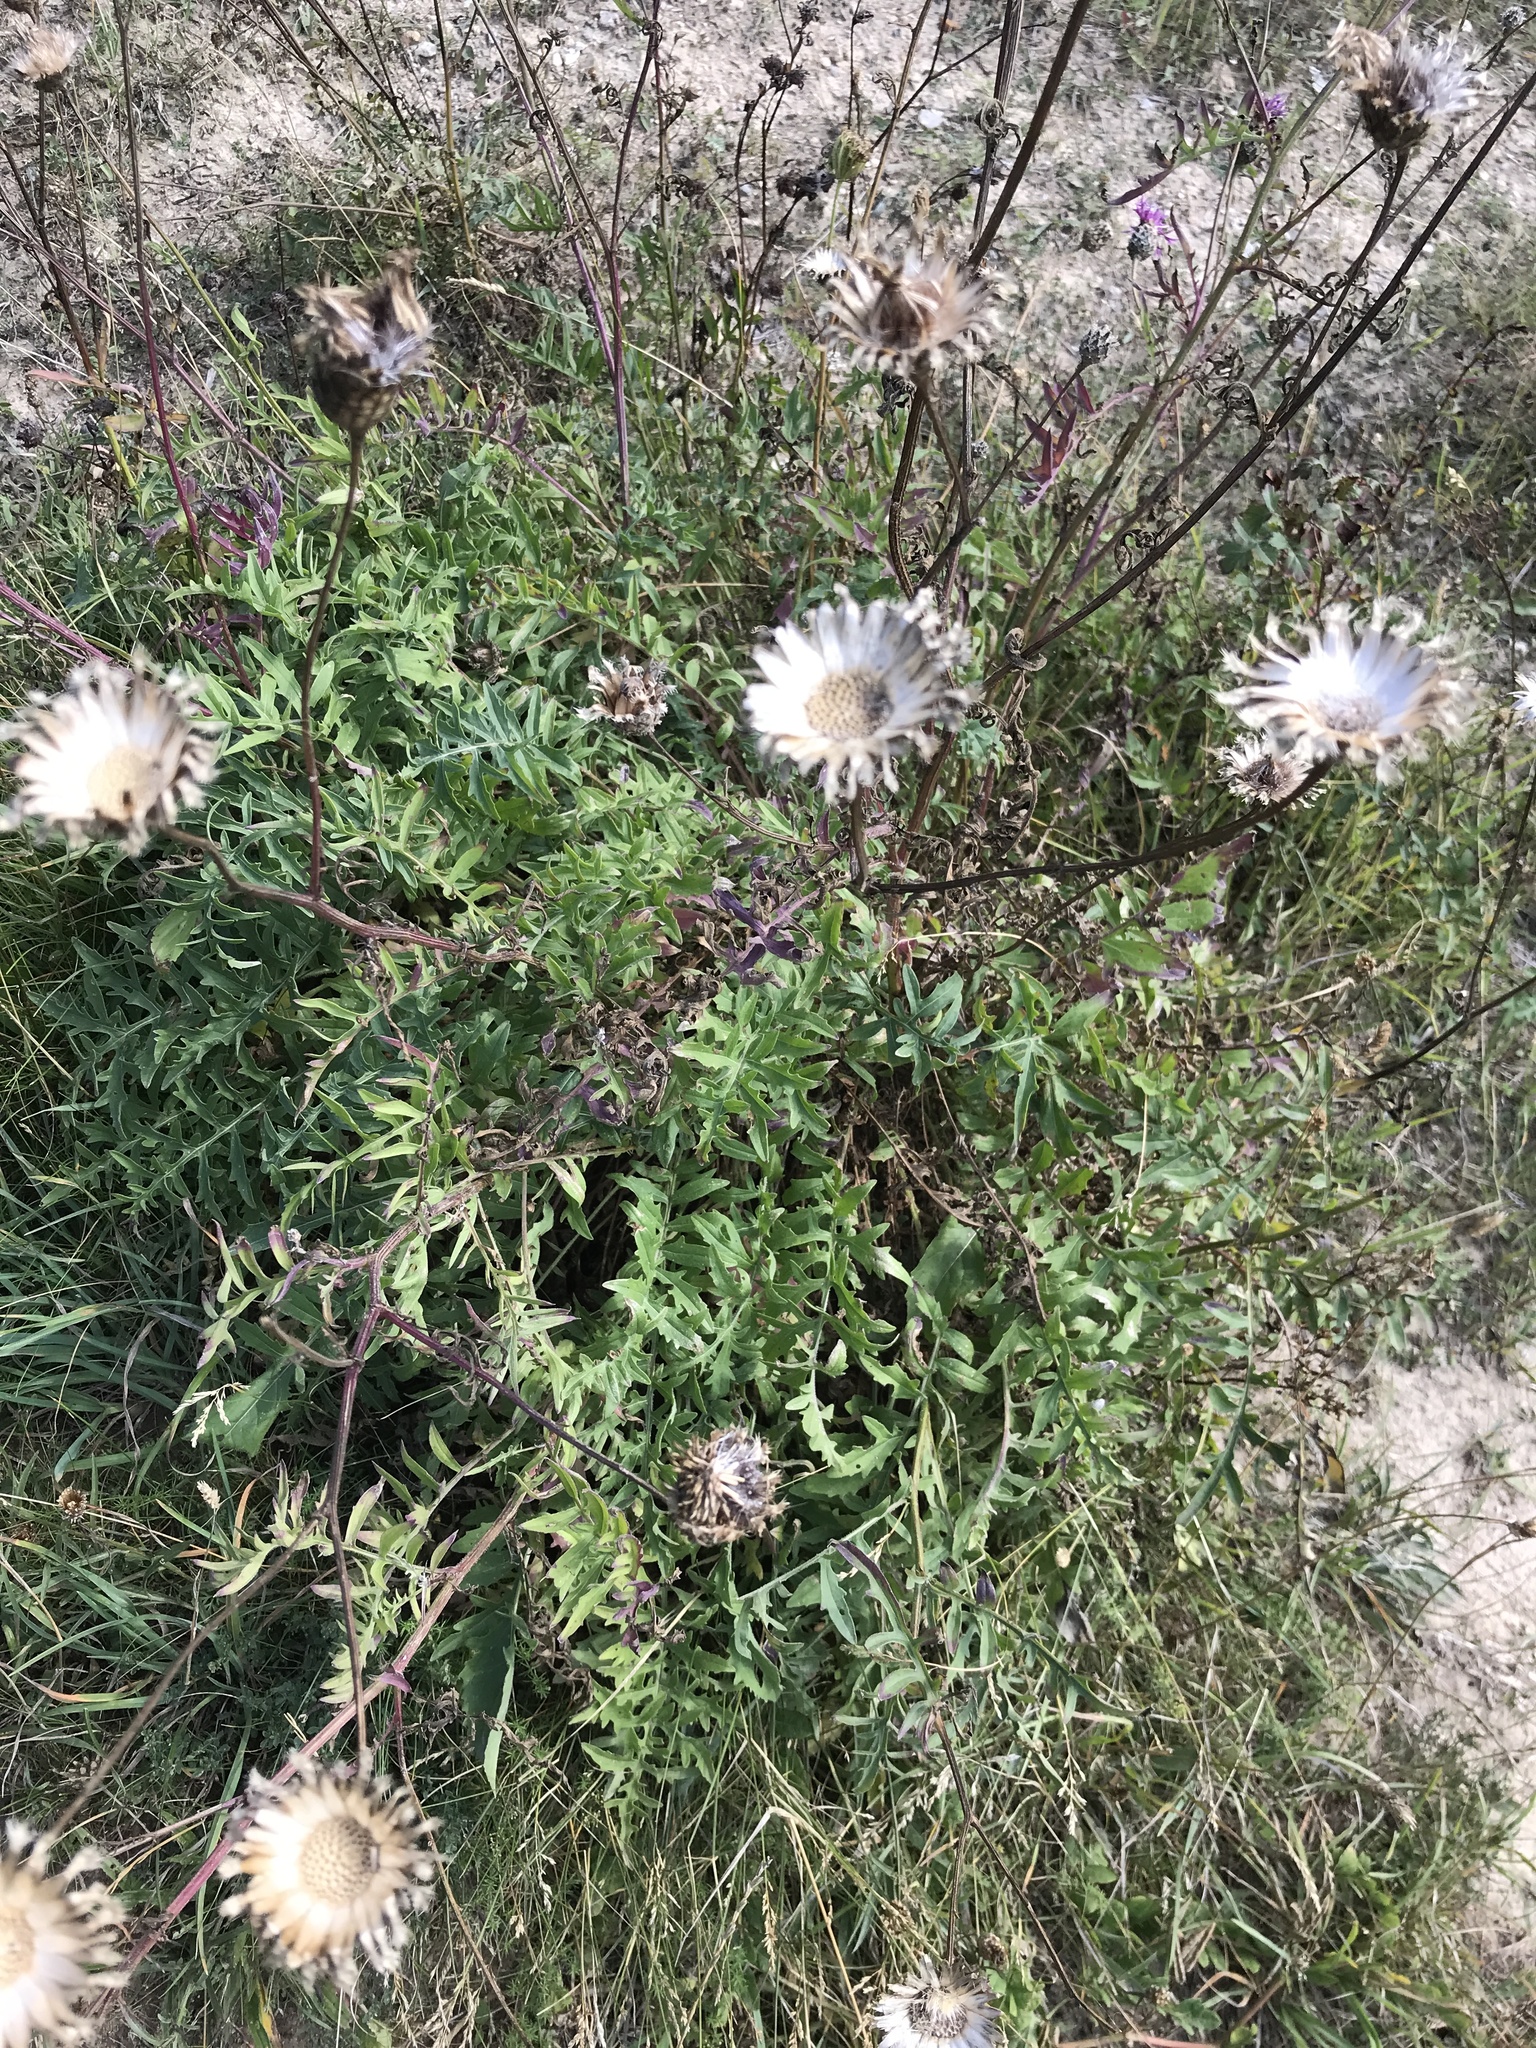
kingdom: Plantae
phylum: Tracheophyta
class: Magnoliopsida
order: Asterales
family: Asteraceae
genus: Centaurea
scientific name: Centaurea scabiosa
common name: Greater knapweed
